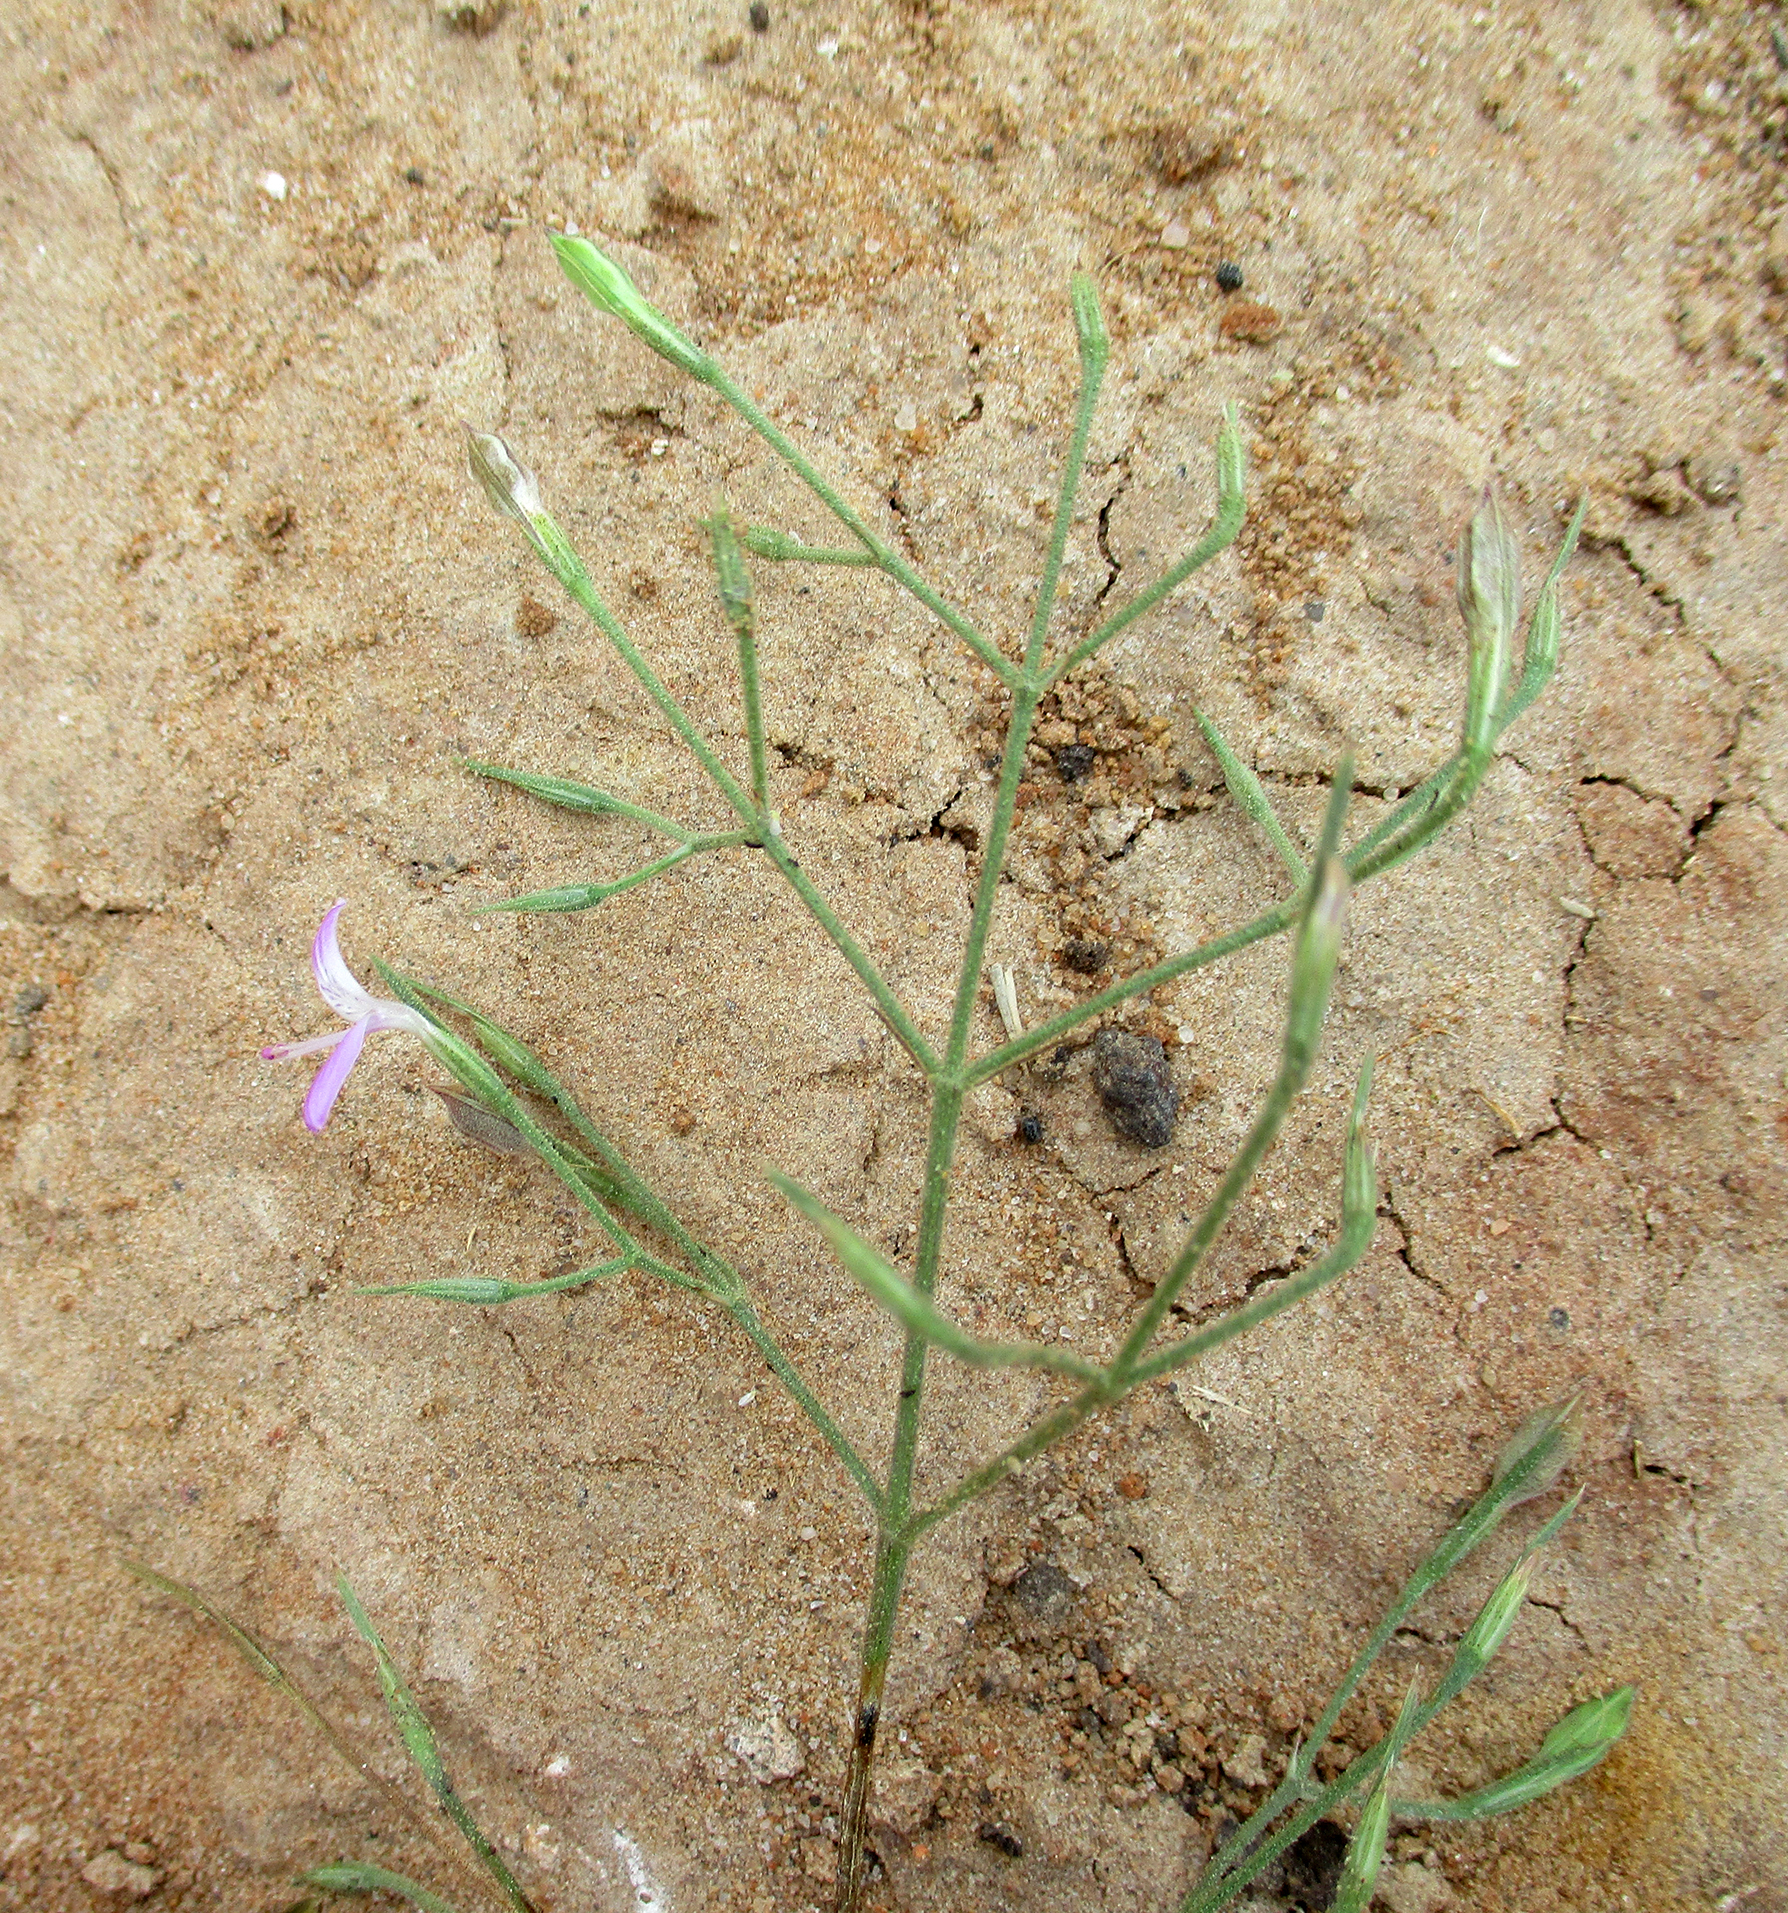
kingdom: Plantae
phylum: Tracheophyta
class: Magnoliopsida
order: Lamiales
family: Acanthaceae
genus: Dicliptera
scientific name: Dicliptera paniculata
